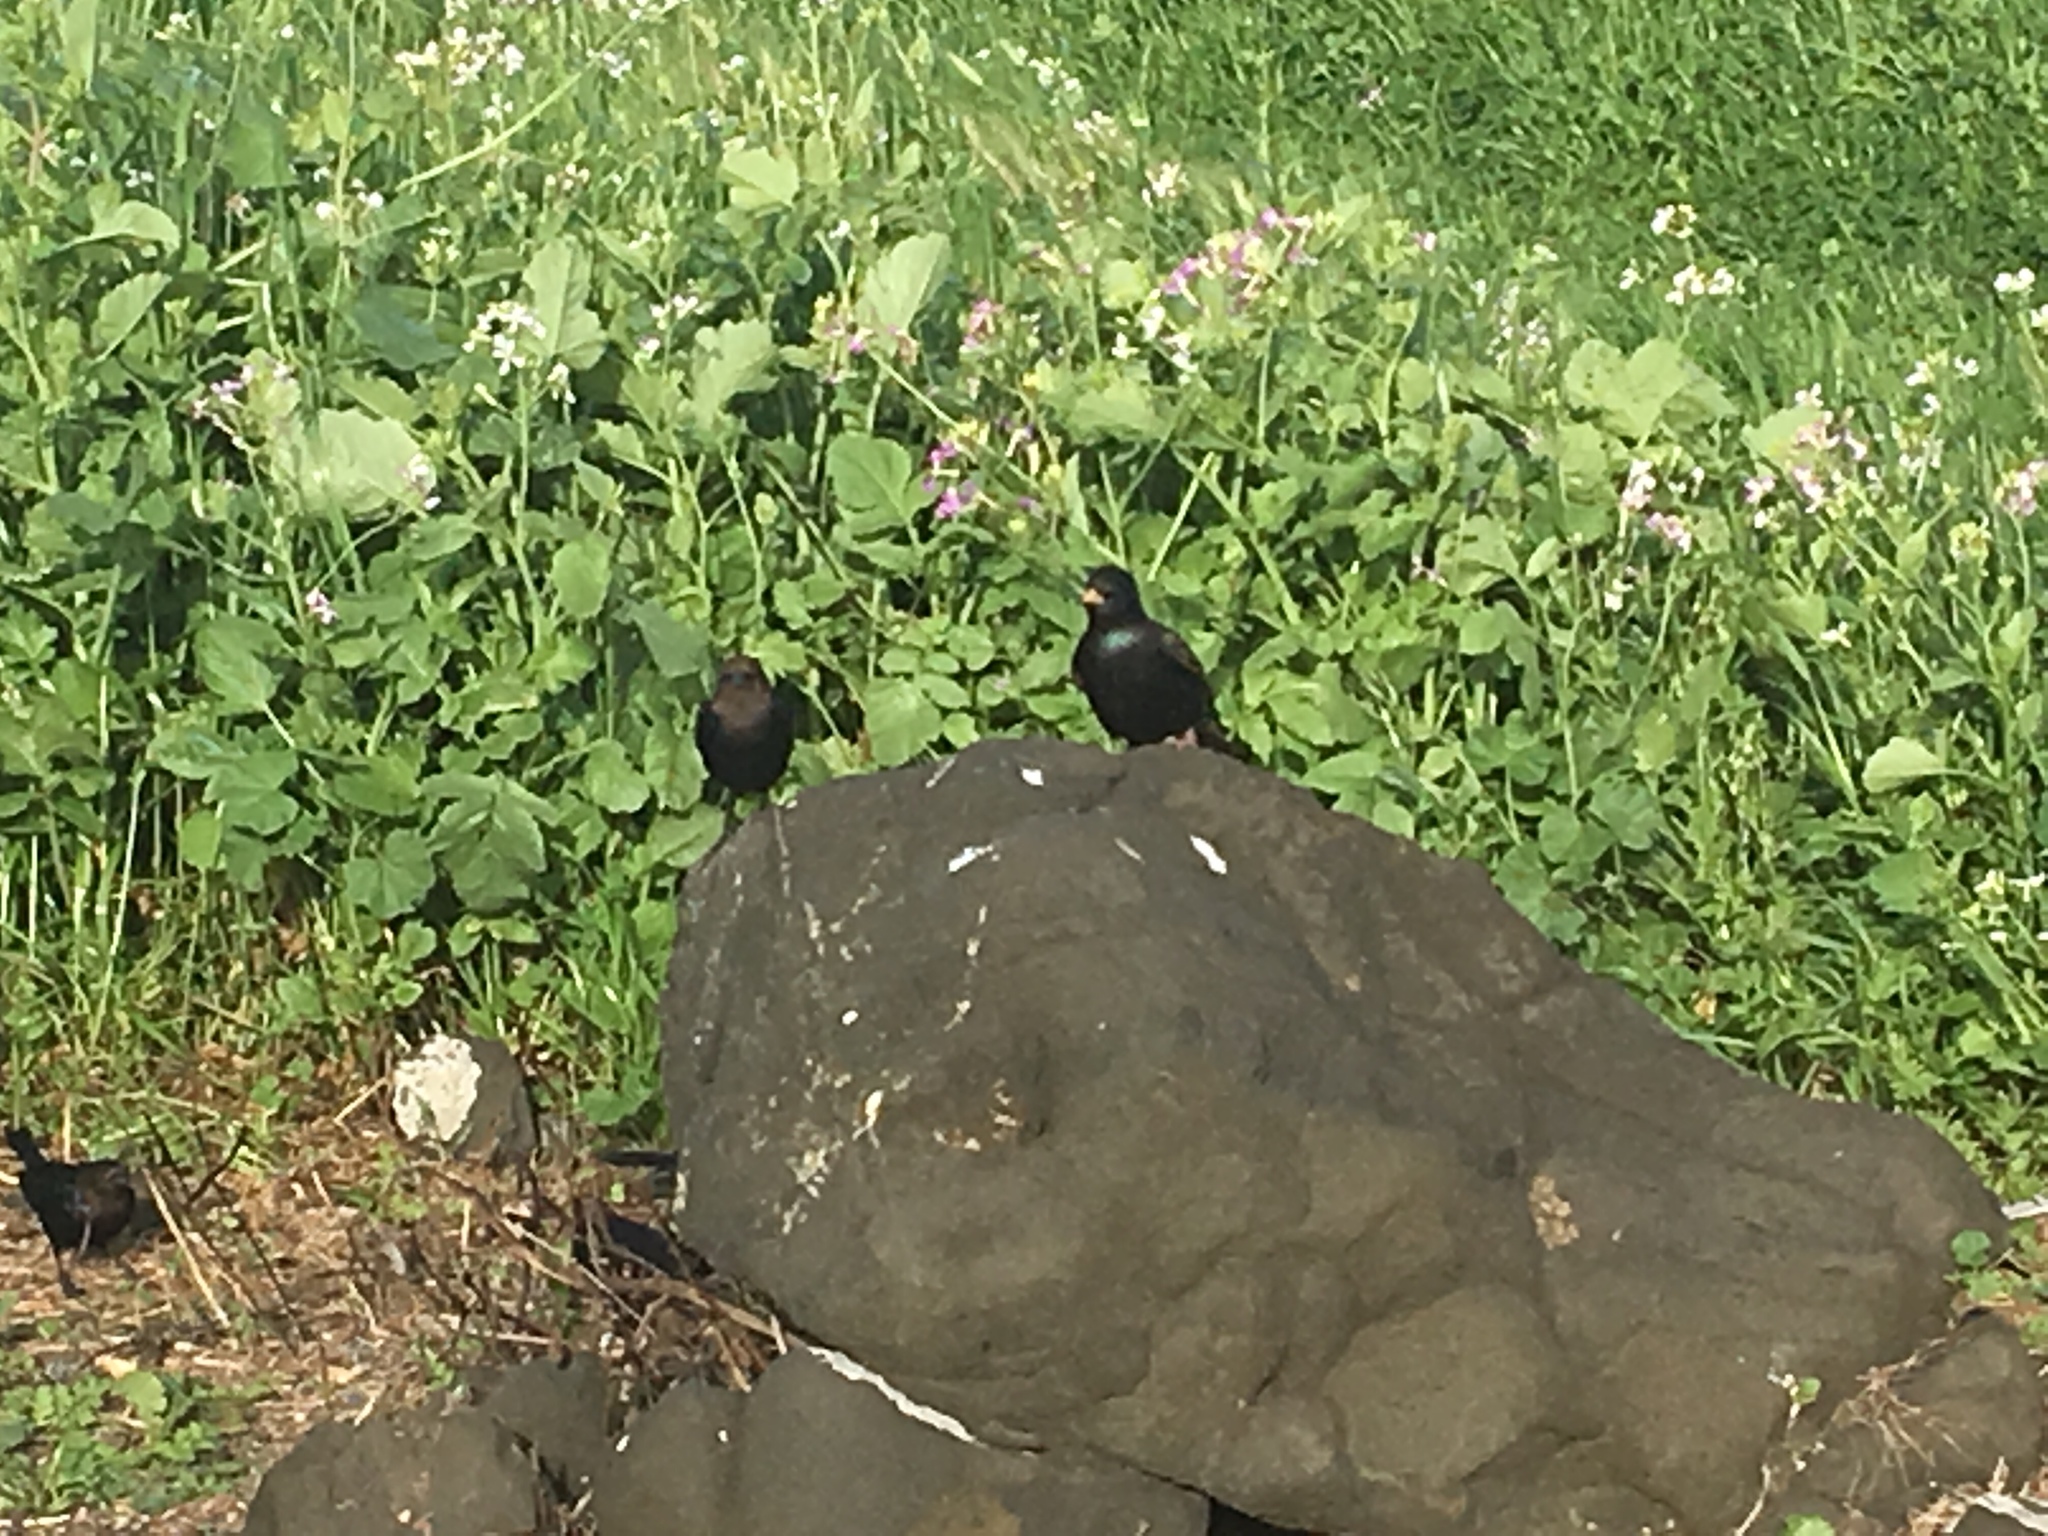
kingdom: Animalia
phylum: Chordata
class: Aves
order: Passeriformes
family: Sturnidae
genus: Sturnus
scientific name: Sturnus vulgaris
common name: Common starling
